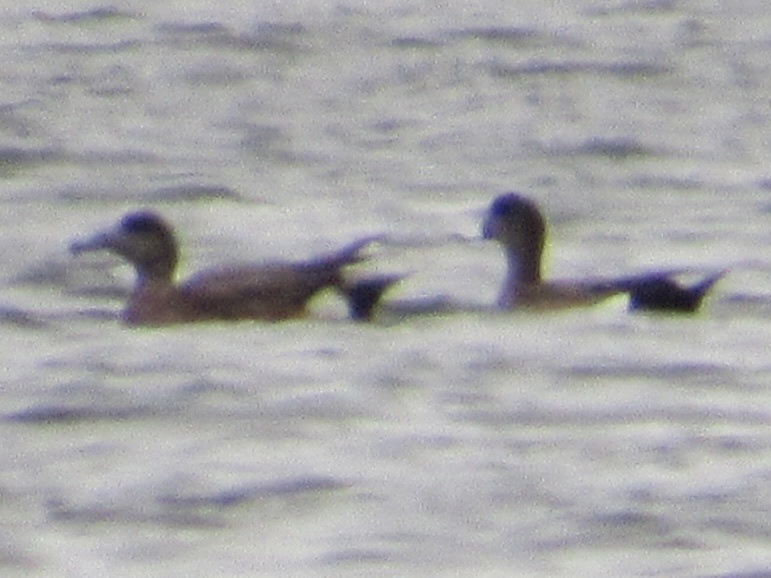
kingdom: Animalia
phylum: Chordata
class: Aves
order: Anseriformes
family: Anatidae
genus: Mareca
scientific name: Mareca americana
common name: American wigeon
